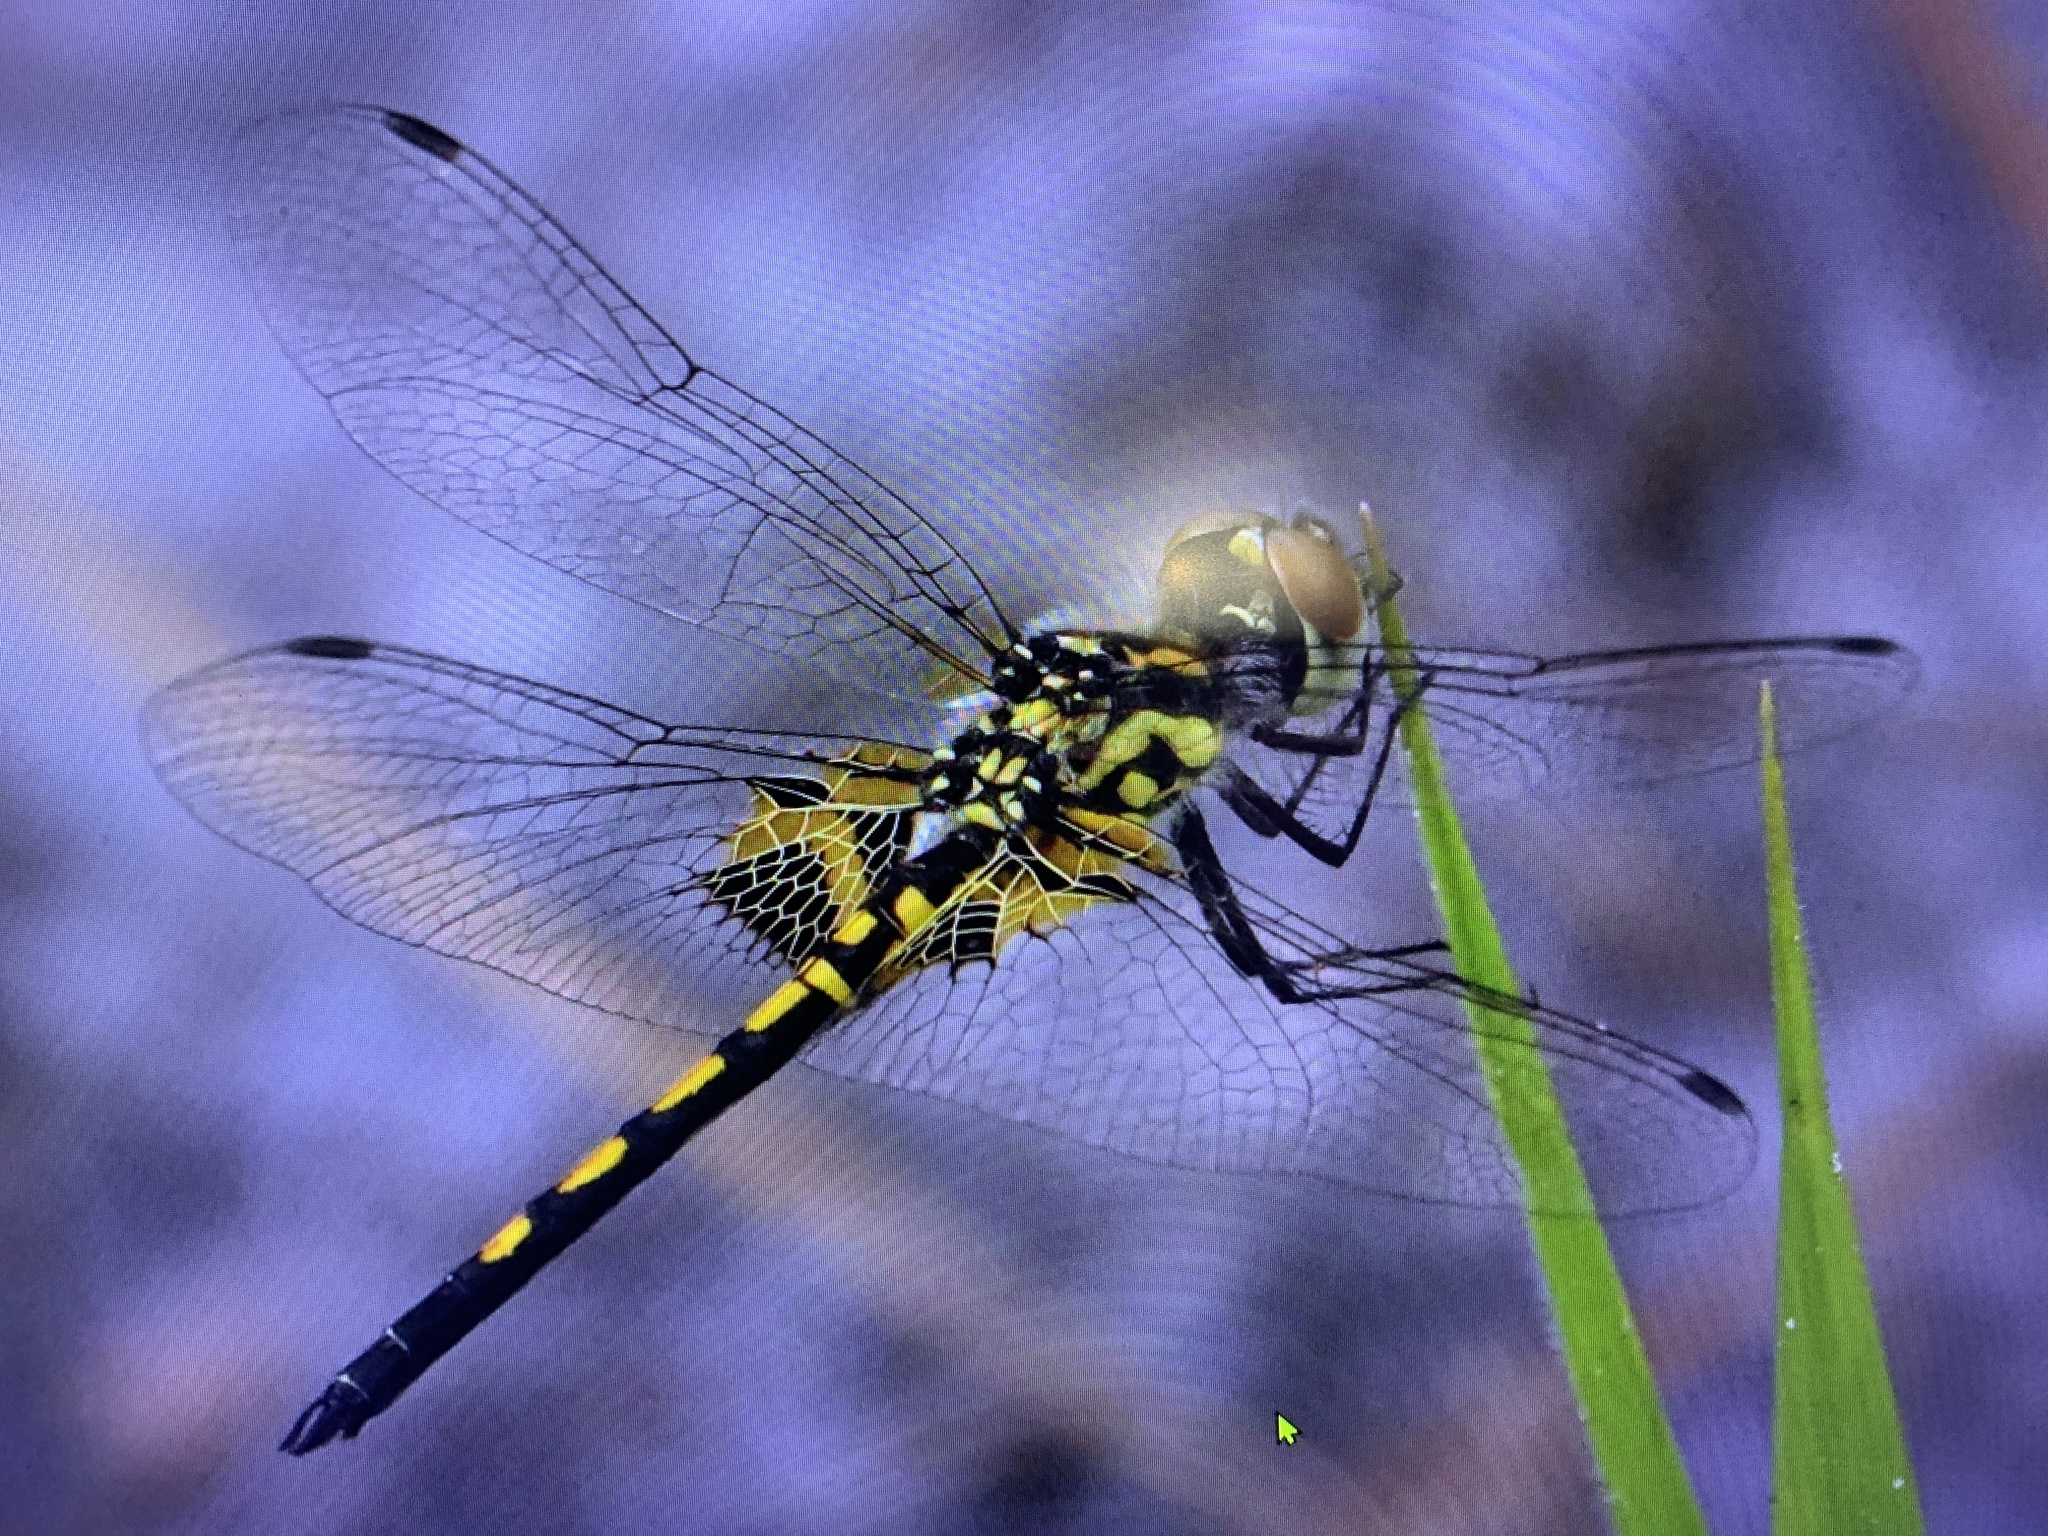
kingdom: Animalia
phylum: Arthropoda
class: Insecta
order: Odonata
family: Libellulidae
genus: Celithemis
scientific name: Celithemis ornata
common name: Ornate pennant
